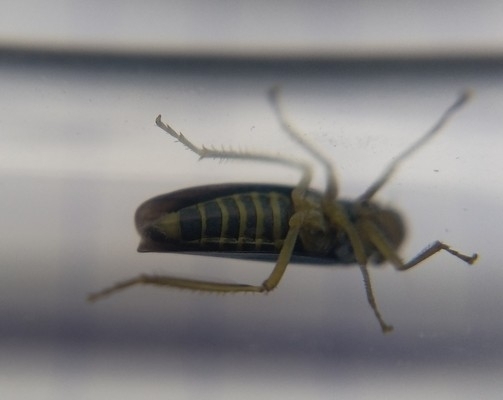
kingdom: Animalia
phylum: Arthropoda
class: Insecta
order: Hemiptera
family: Cicadellidae
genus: Cicadella
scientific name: Cicadella viridis
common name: Leafhopper
